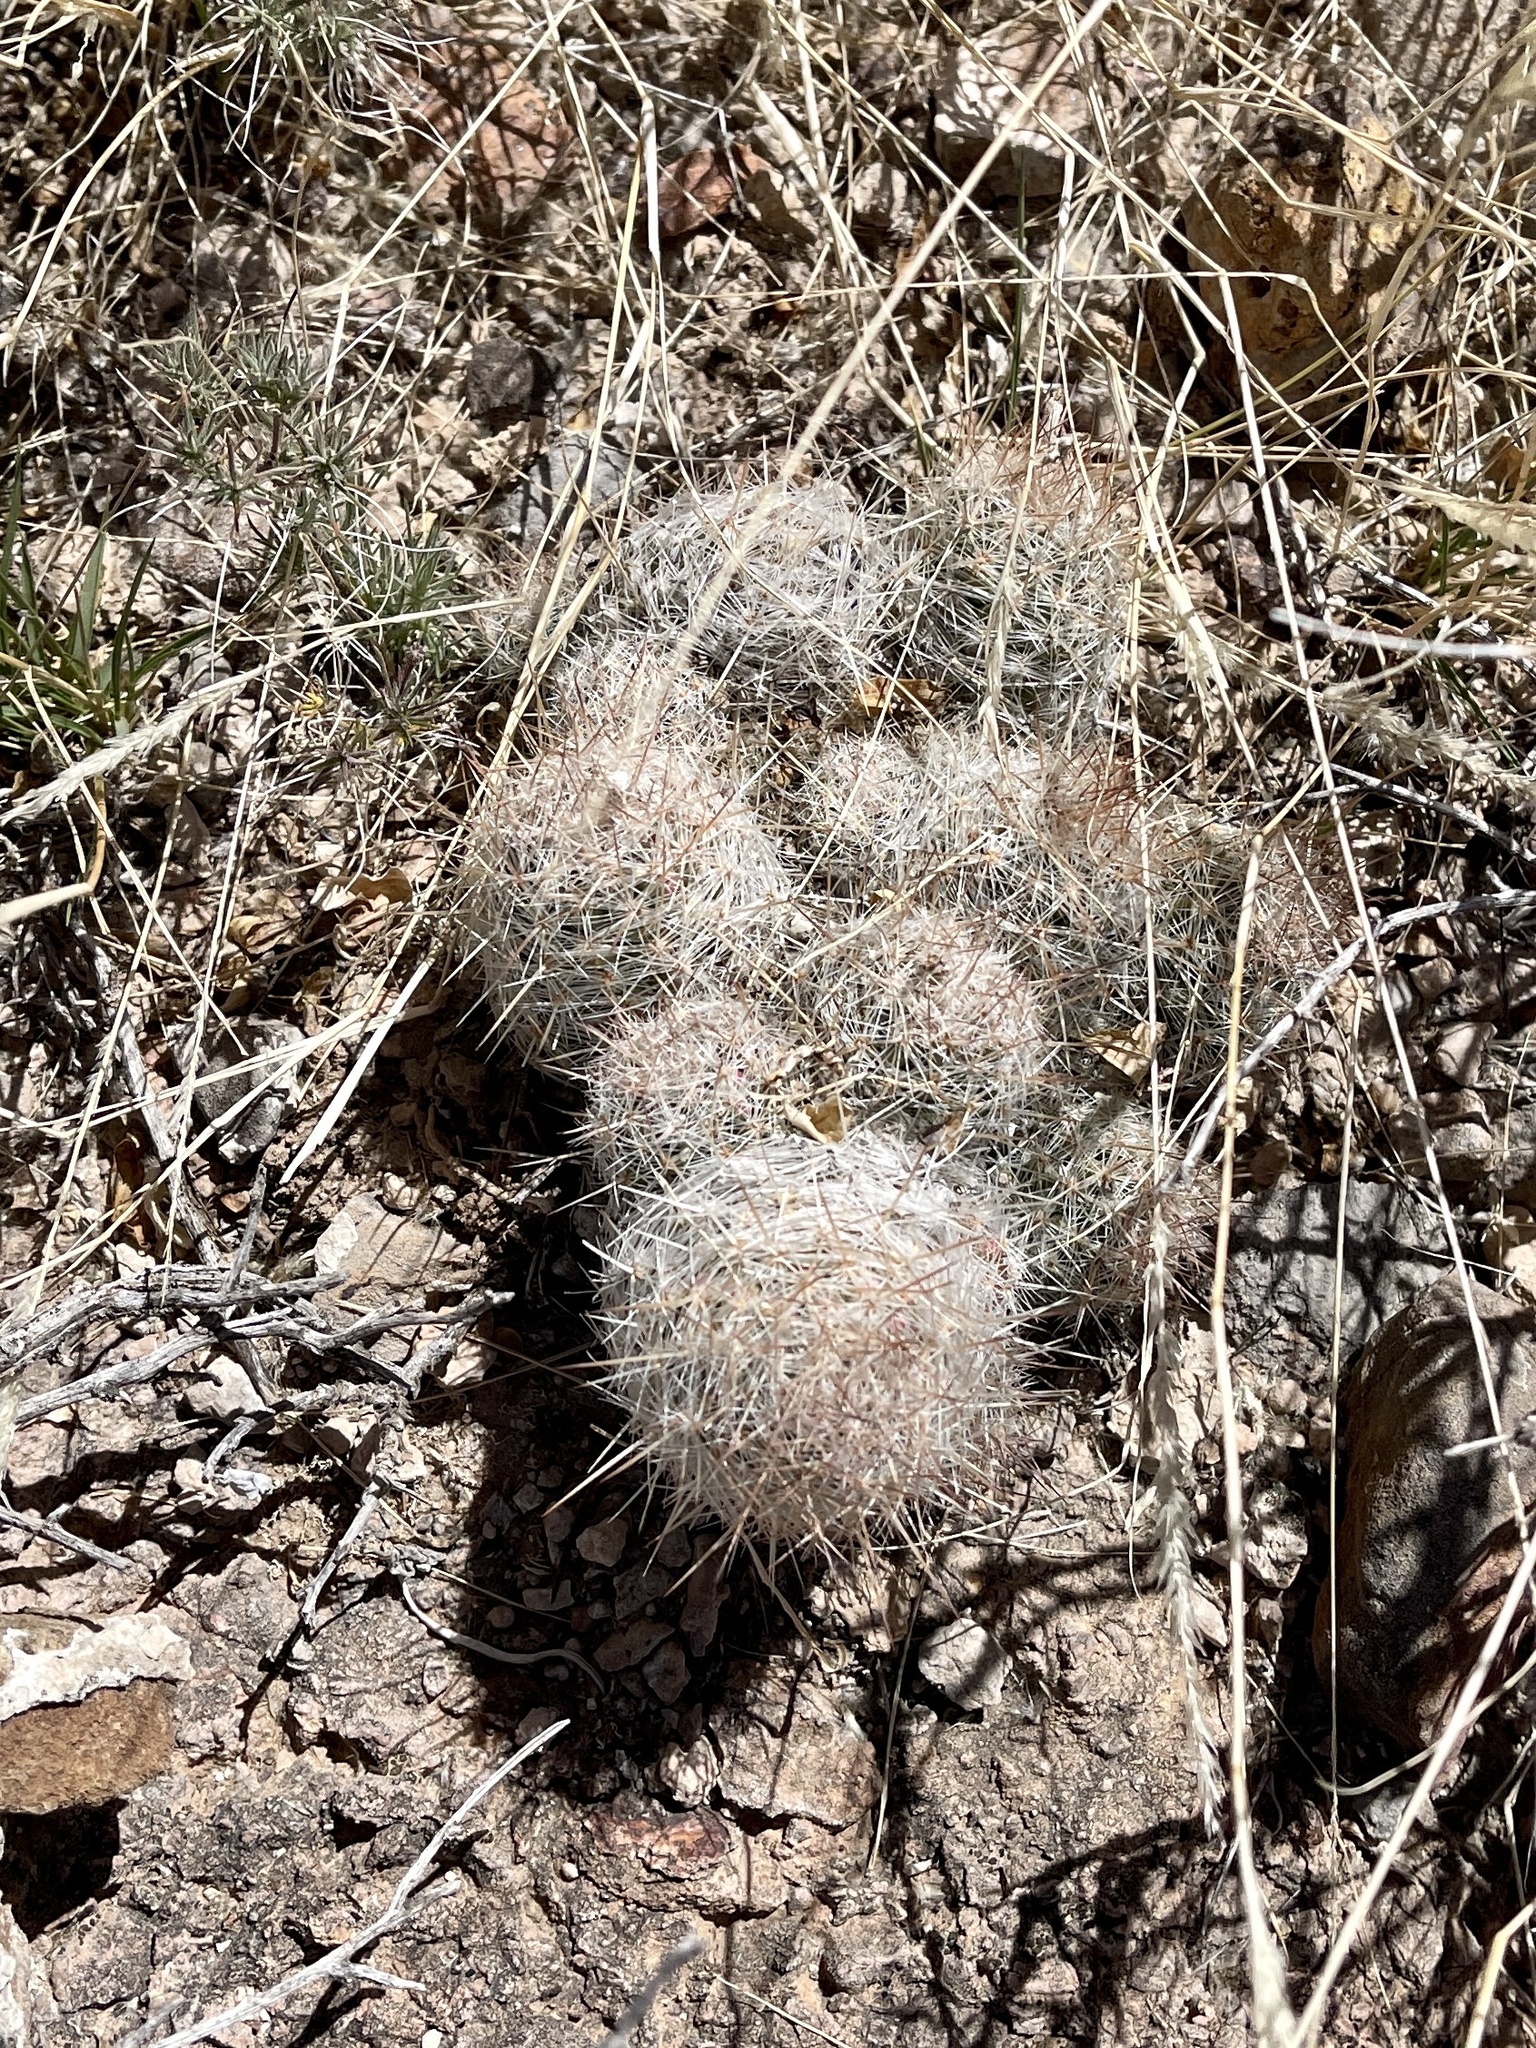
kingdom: Plantae
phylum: Tracheophyta
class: Magnoliopsida
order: Caryophyllales
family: Cactaceae
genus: Pelecyphora
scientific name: Pelecyphora tuberculosa
